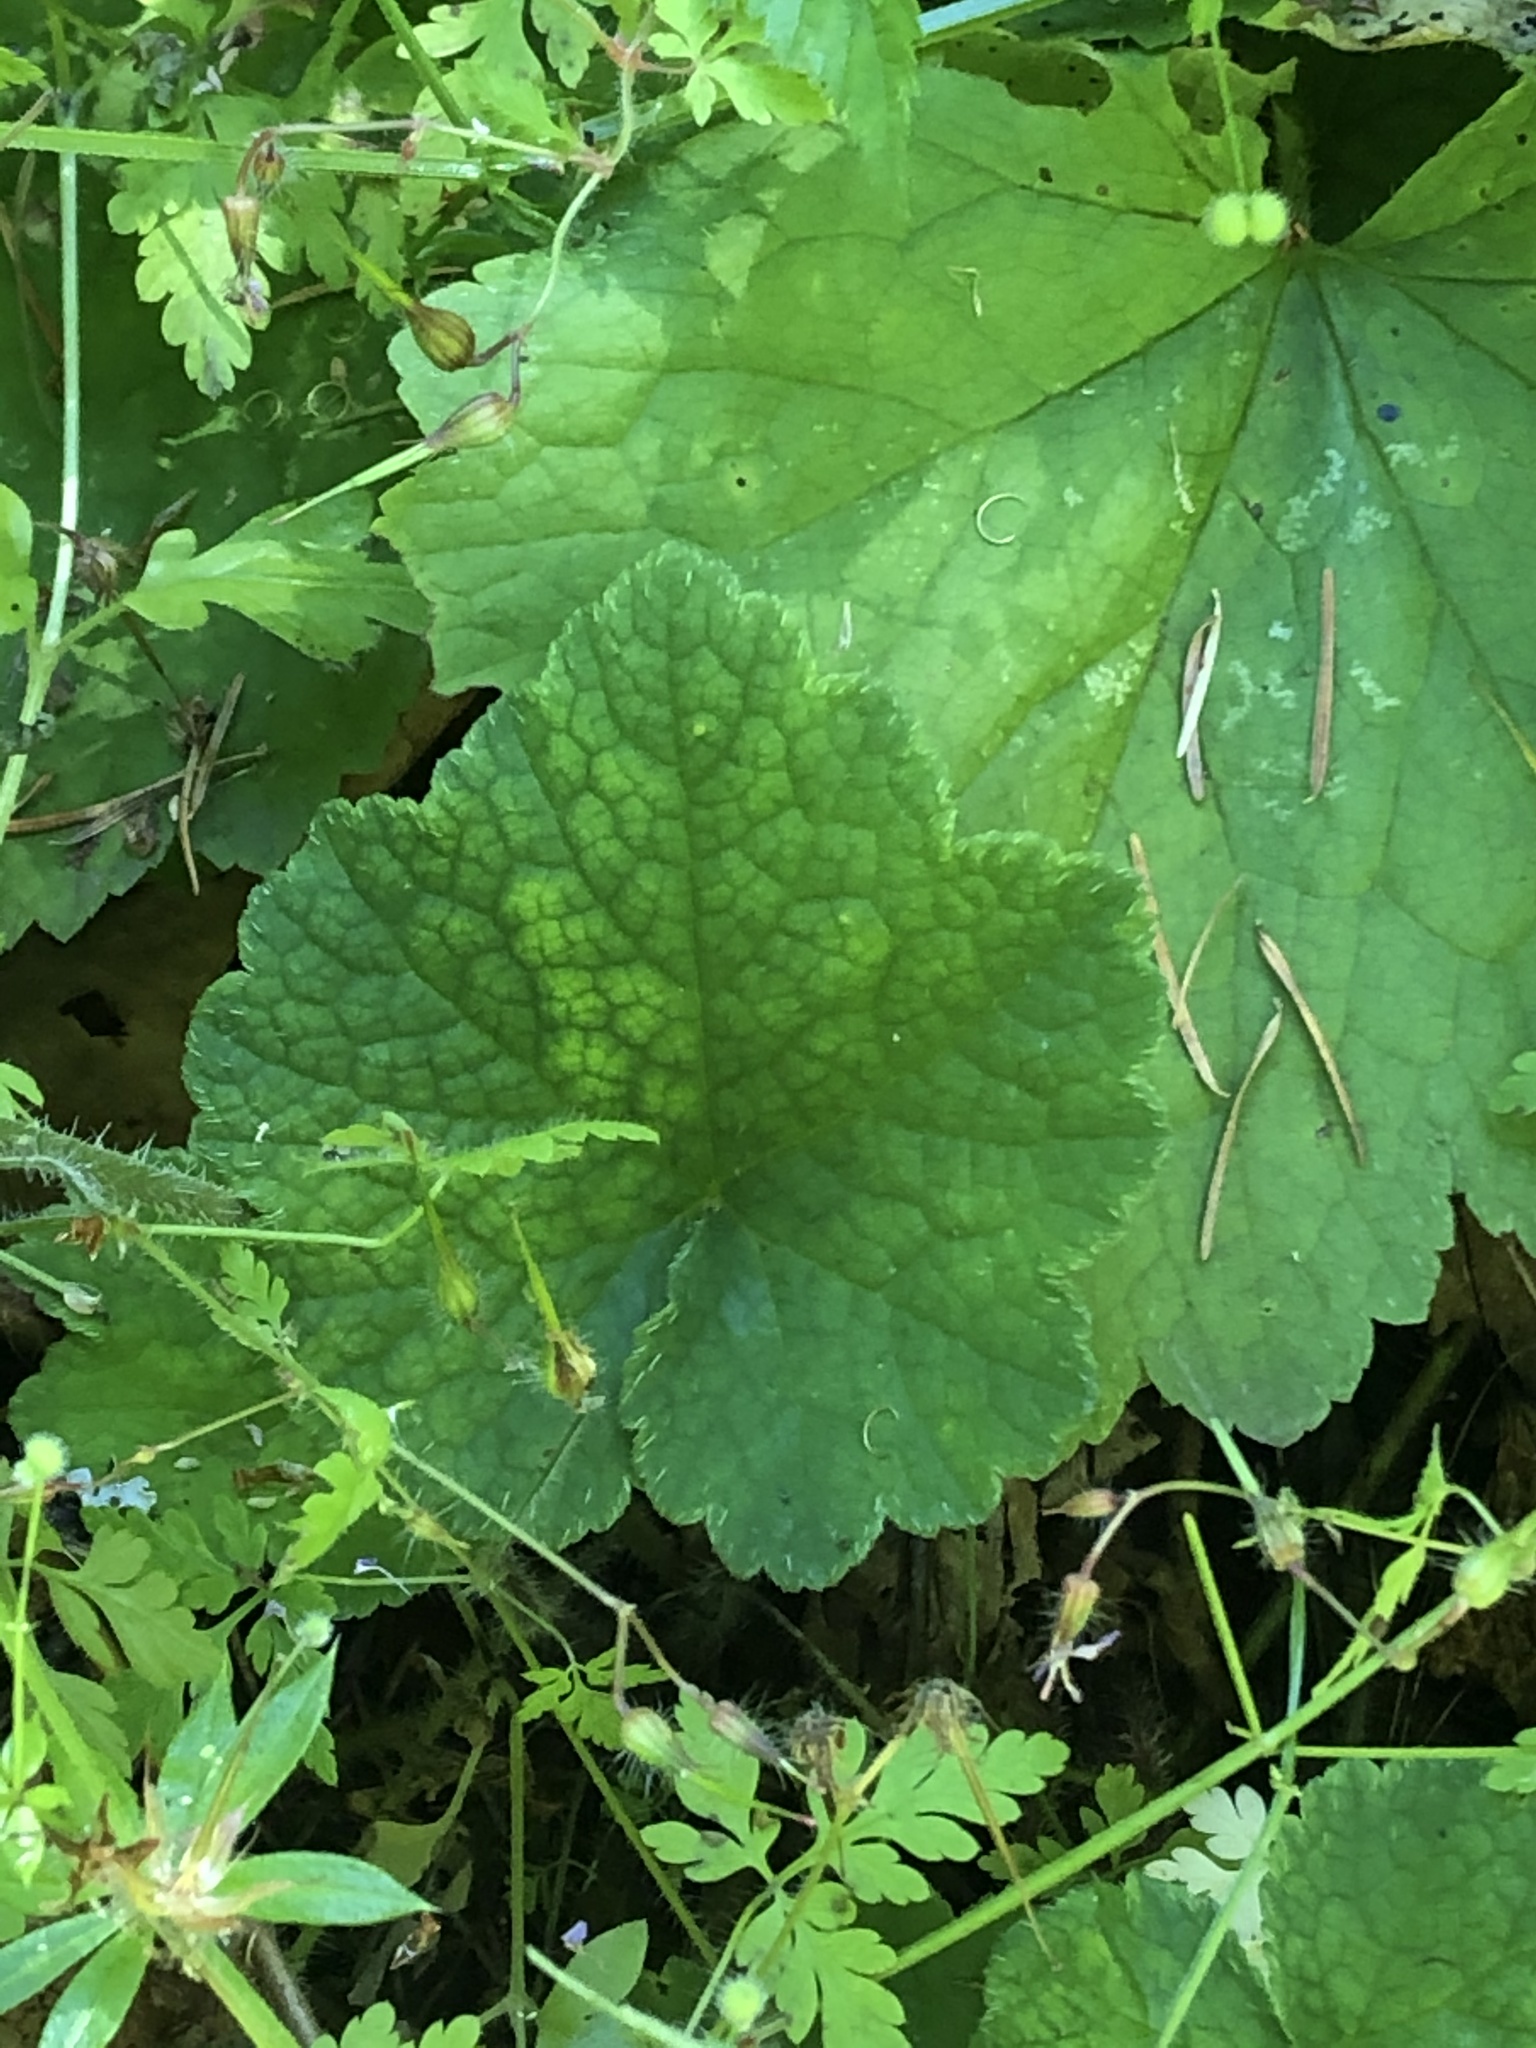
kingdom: Plantae
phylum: Tracheophyta
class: Magnoliopsida
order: Saxifragales
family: Saxifragaceae
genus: Tellima
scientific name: Tellima grandiflora
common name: Fringecups
